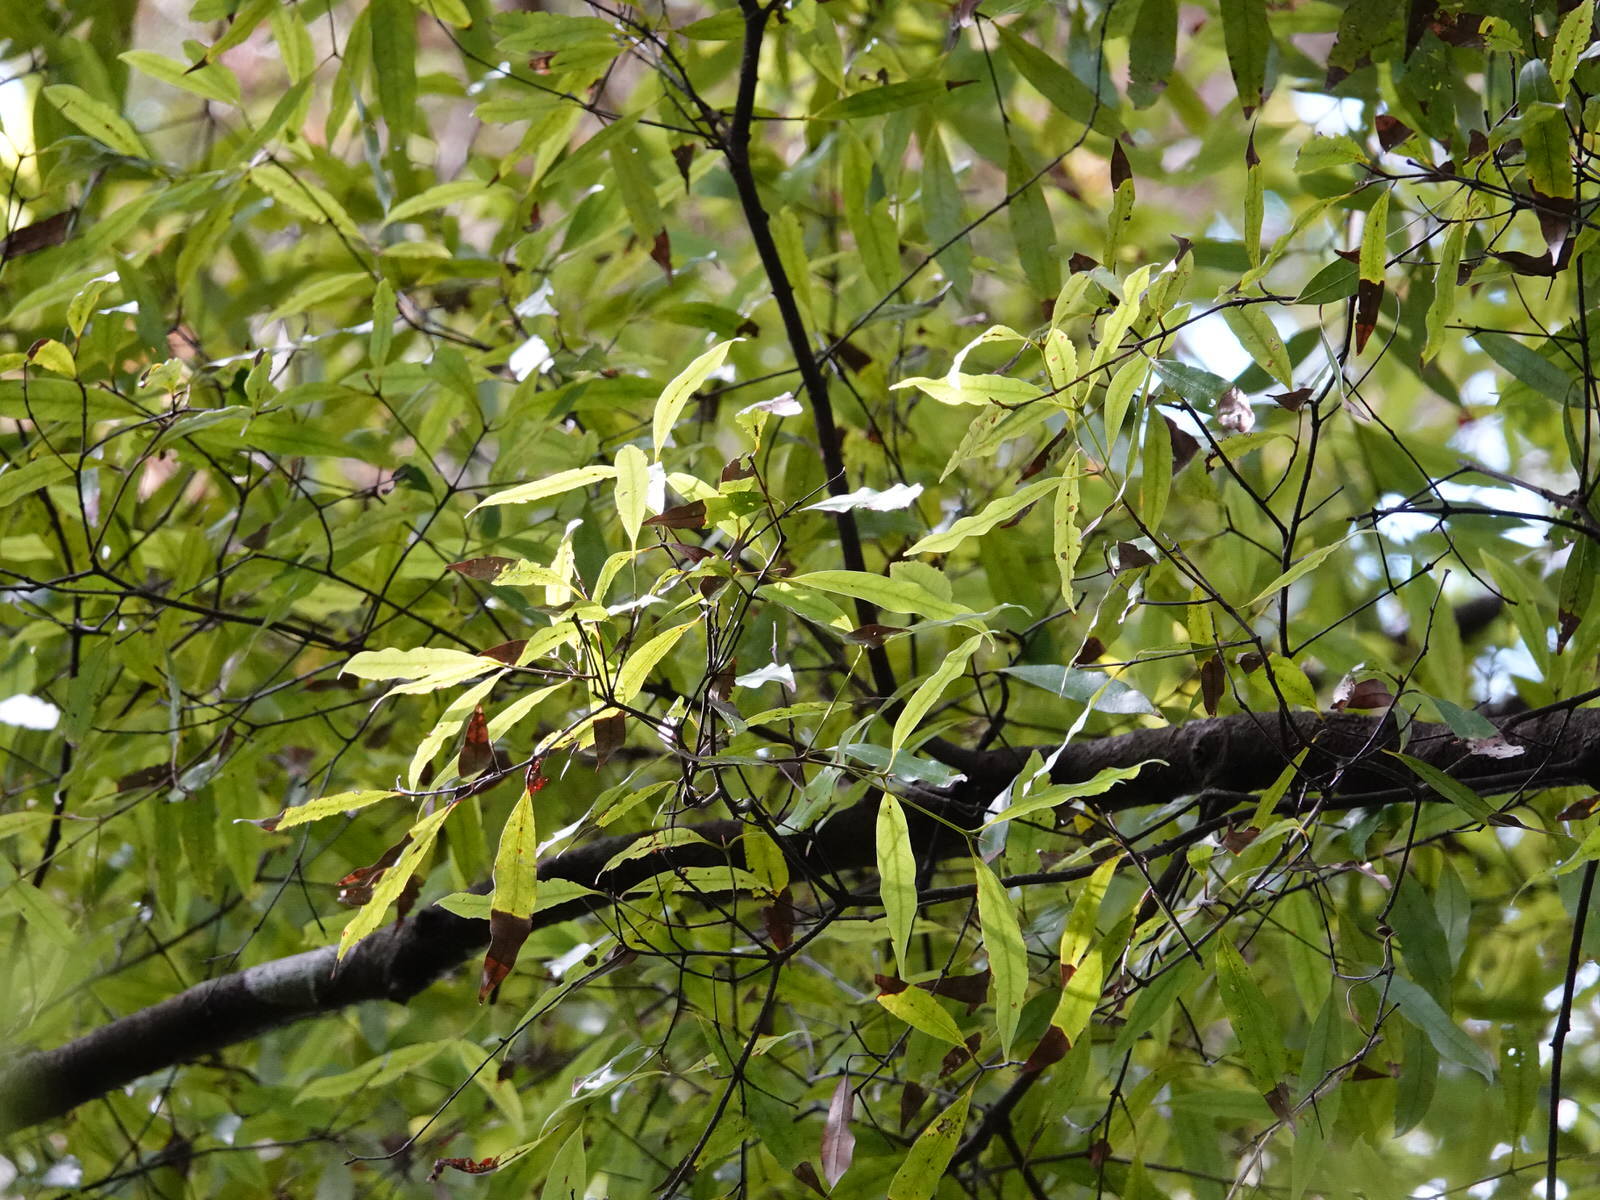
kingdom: Plantae
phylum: Tracheophyta
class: Magnoliopsida
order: Laurales
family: Lauraceae
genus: Beilschmiedia
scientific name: Beilschmiedia tawa
